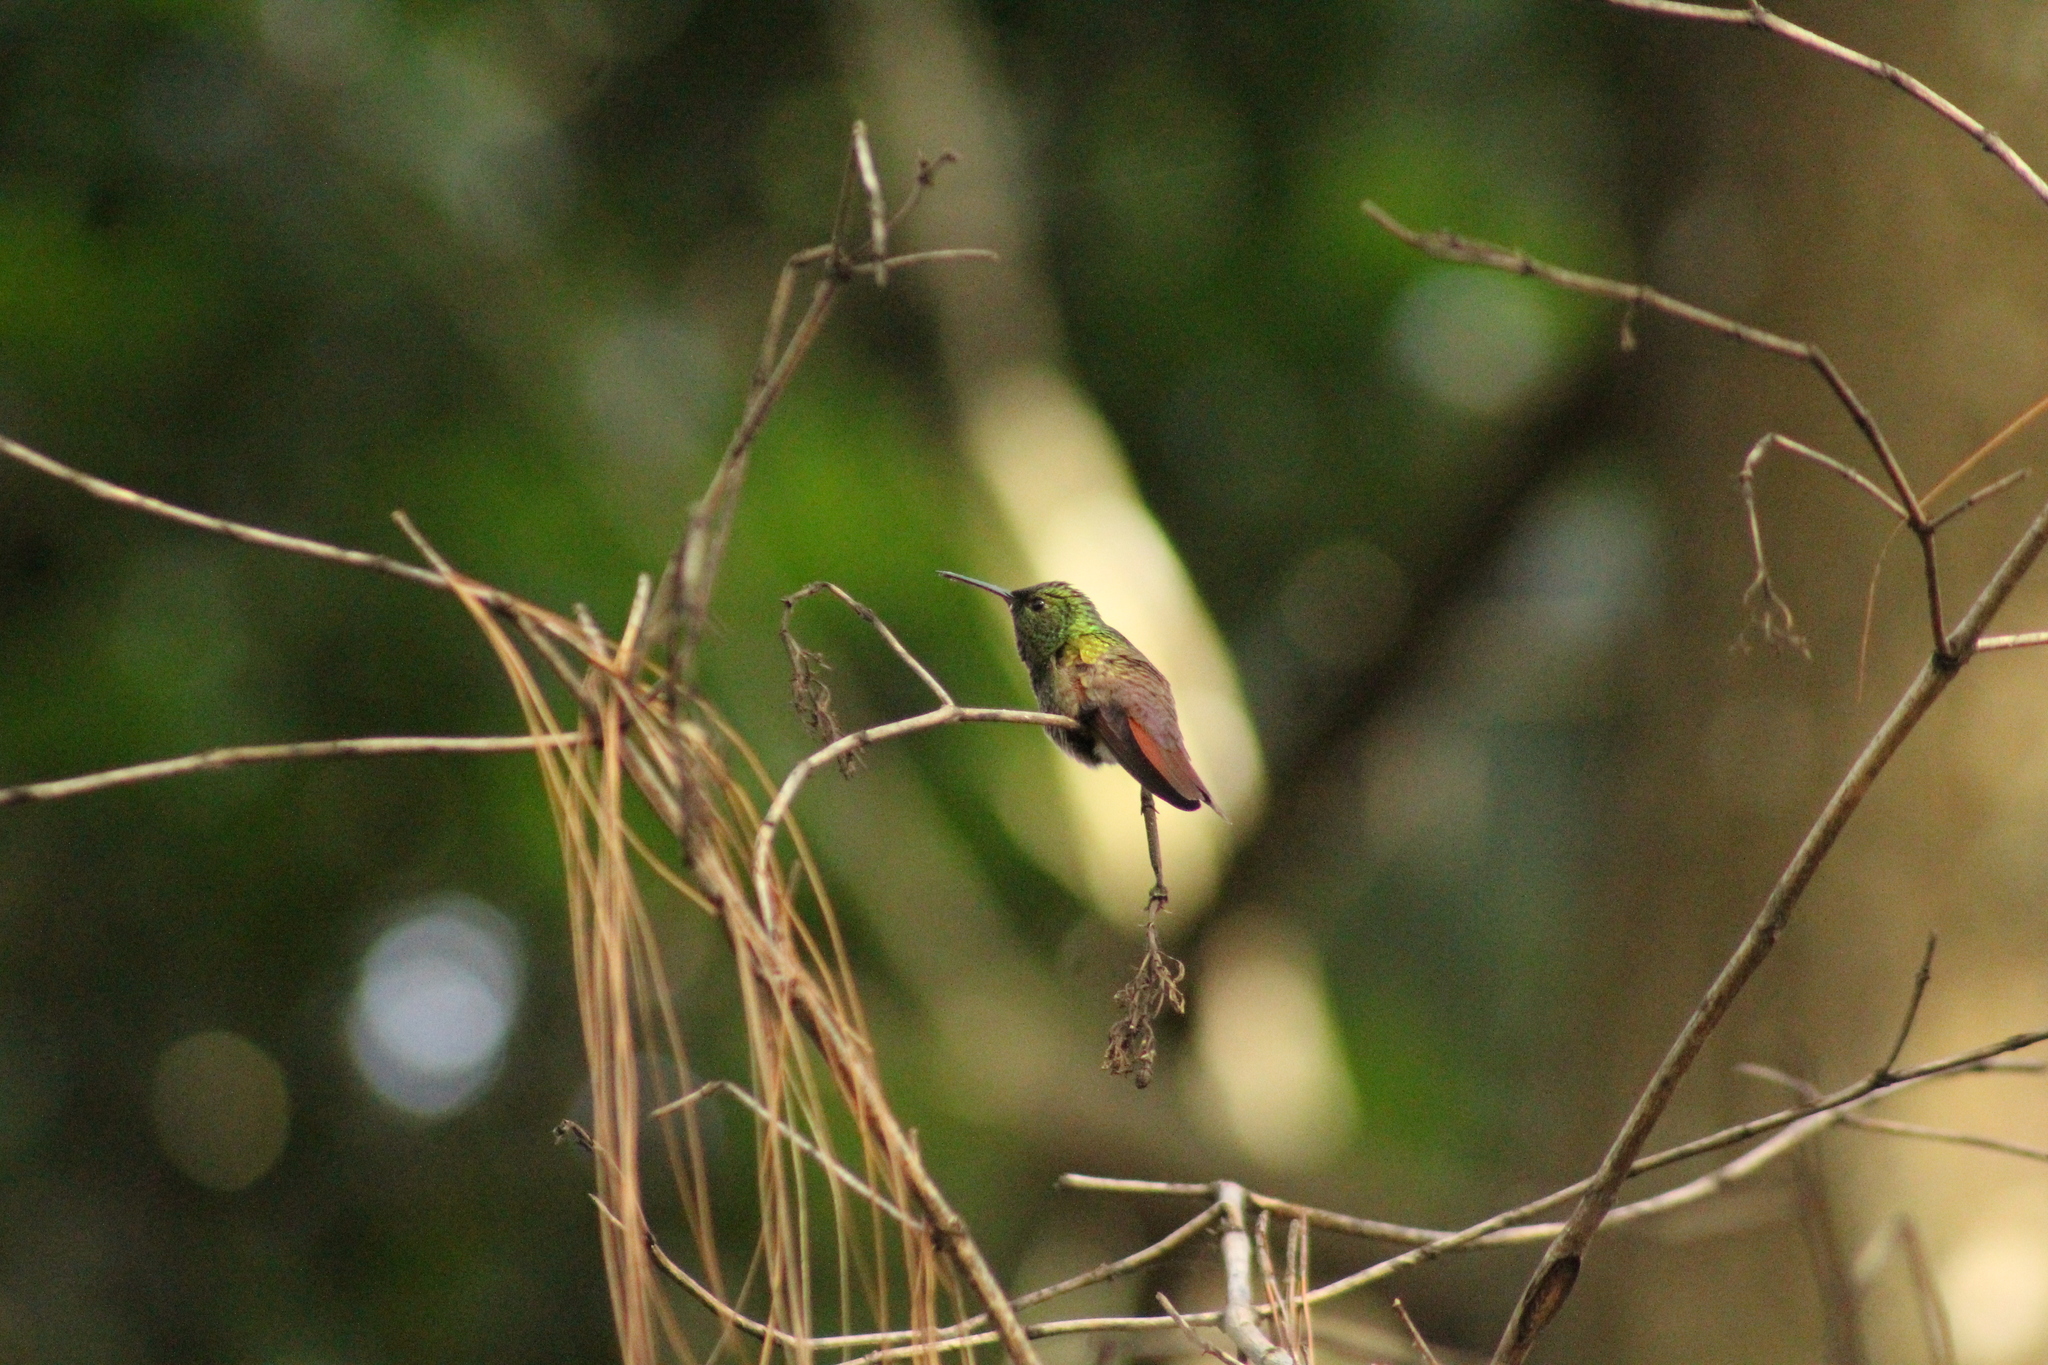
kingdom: Animalia
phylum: Chordata
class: Aves
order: Apodiformes
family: Trochilidae
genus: Saucerottia
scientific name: Saucerottia beryllina
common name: Berylline hummingbird
